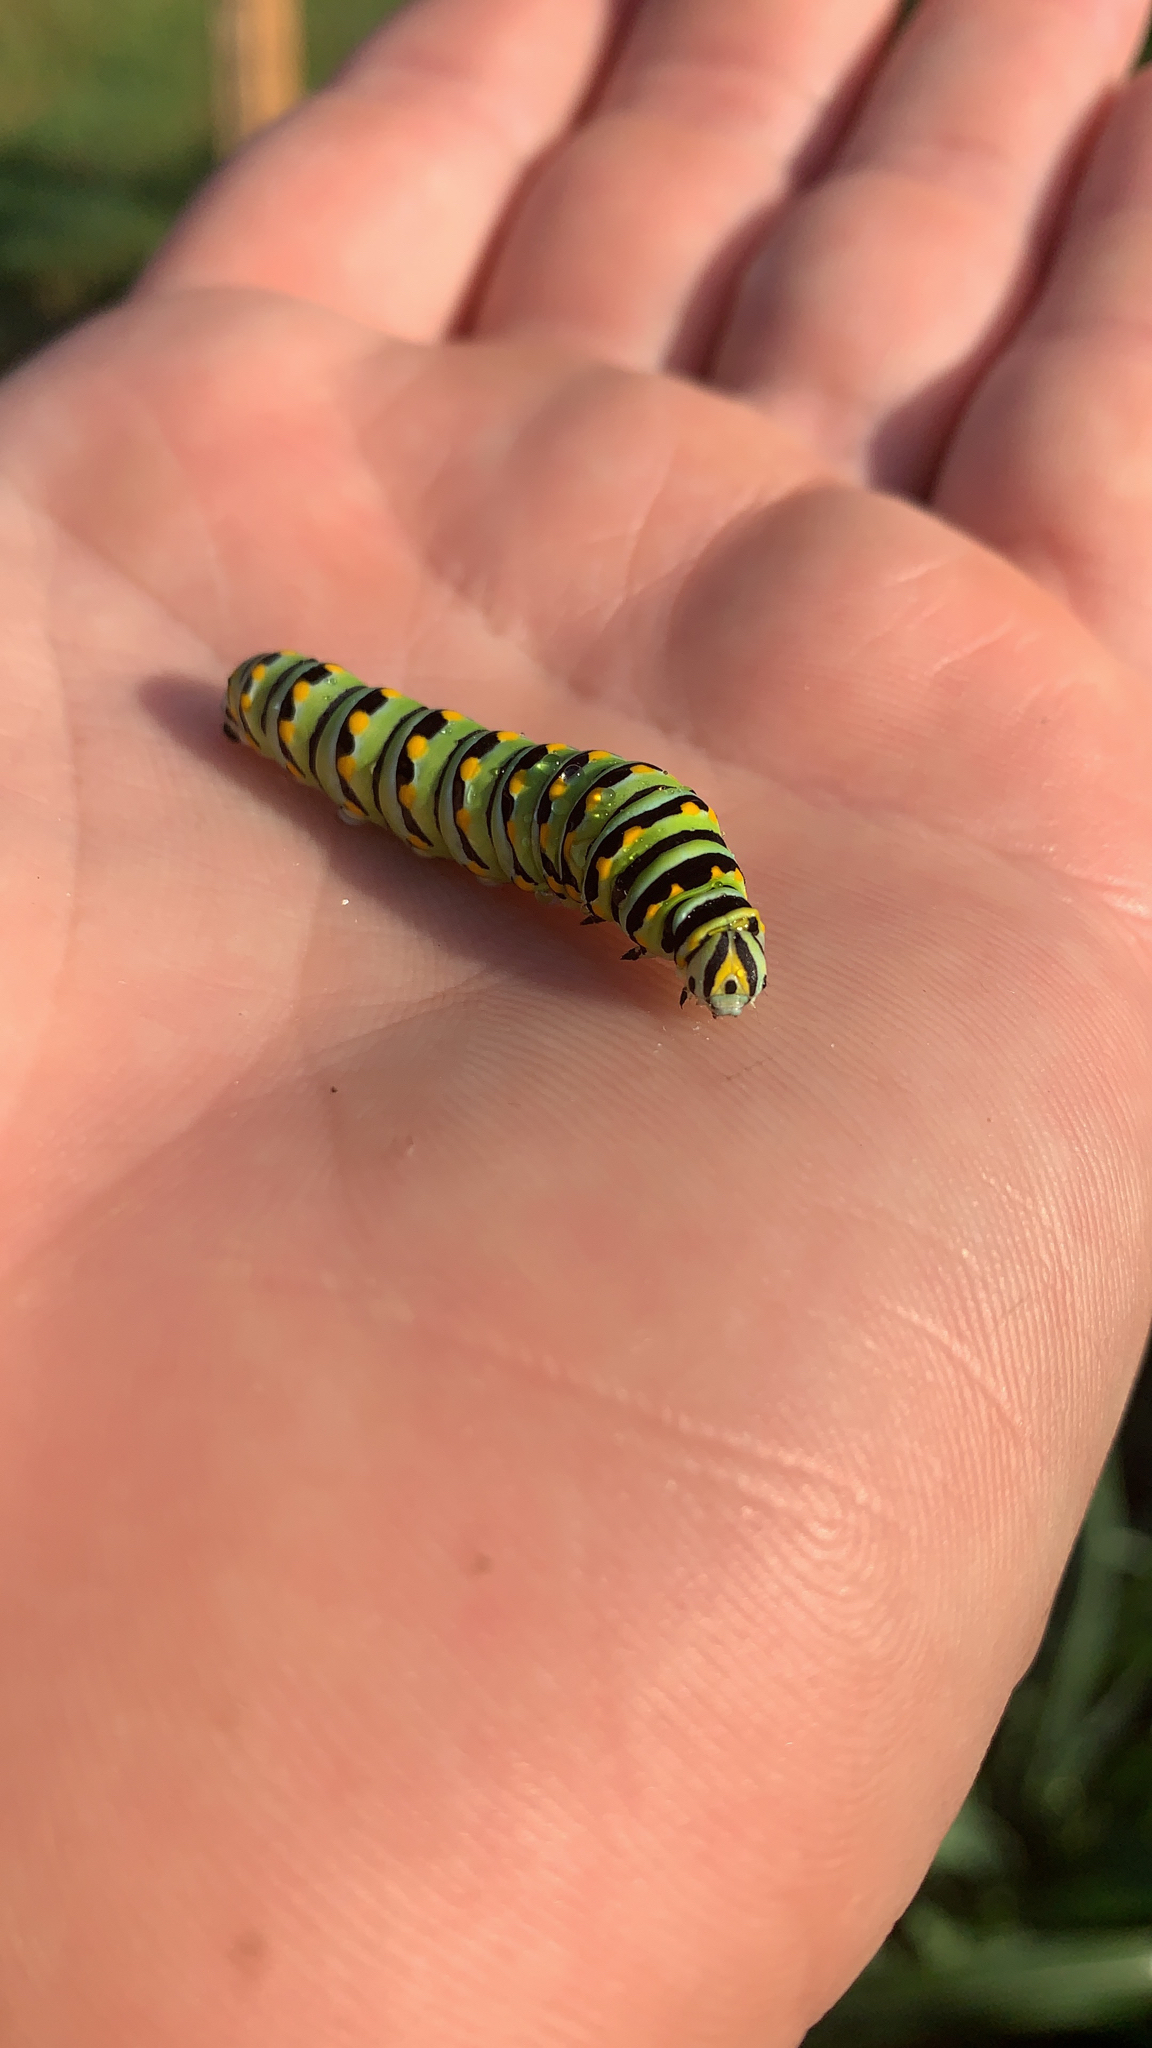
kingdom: Animalia
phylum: Arthropoda
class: Insecta
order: Lepidoptera
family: Papilionidae
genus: Papilio
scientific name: Papilio polyxenes
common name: Black swallowtail
